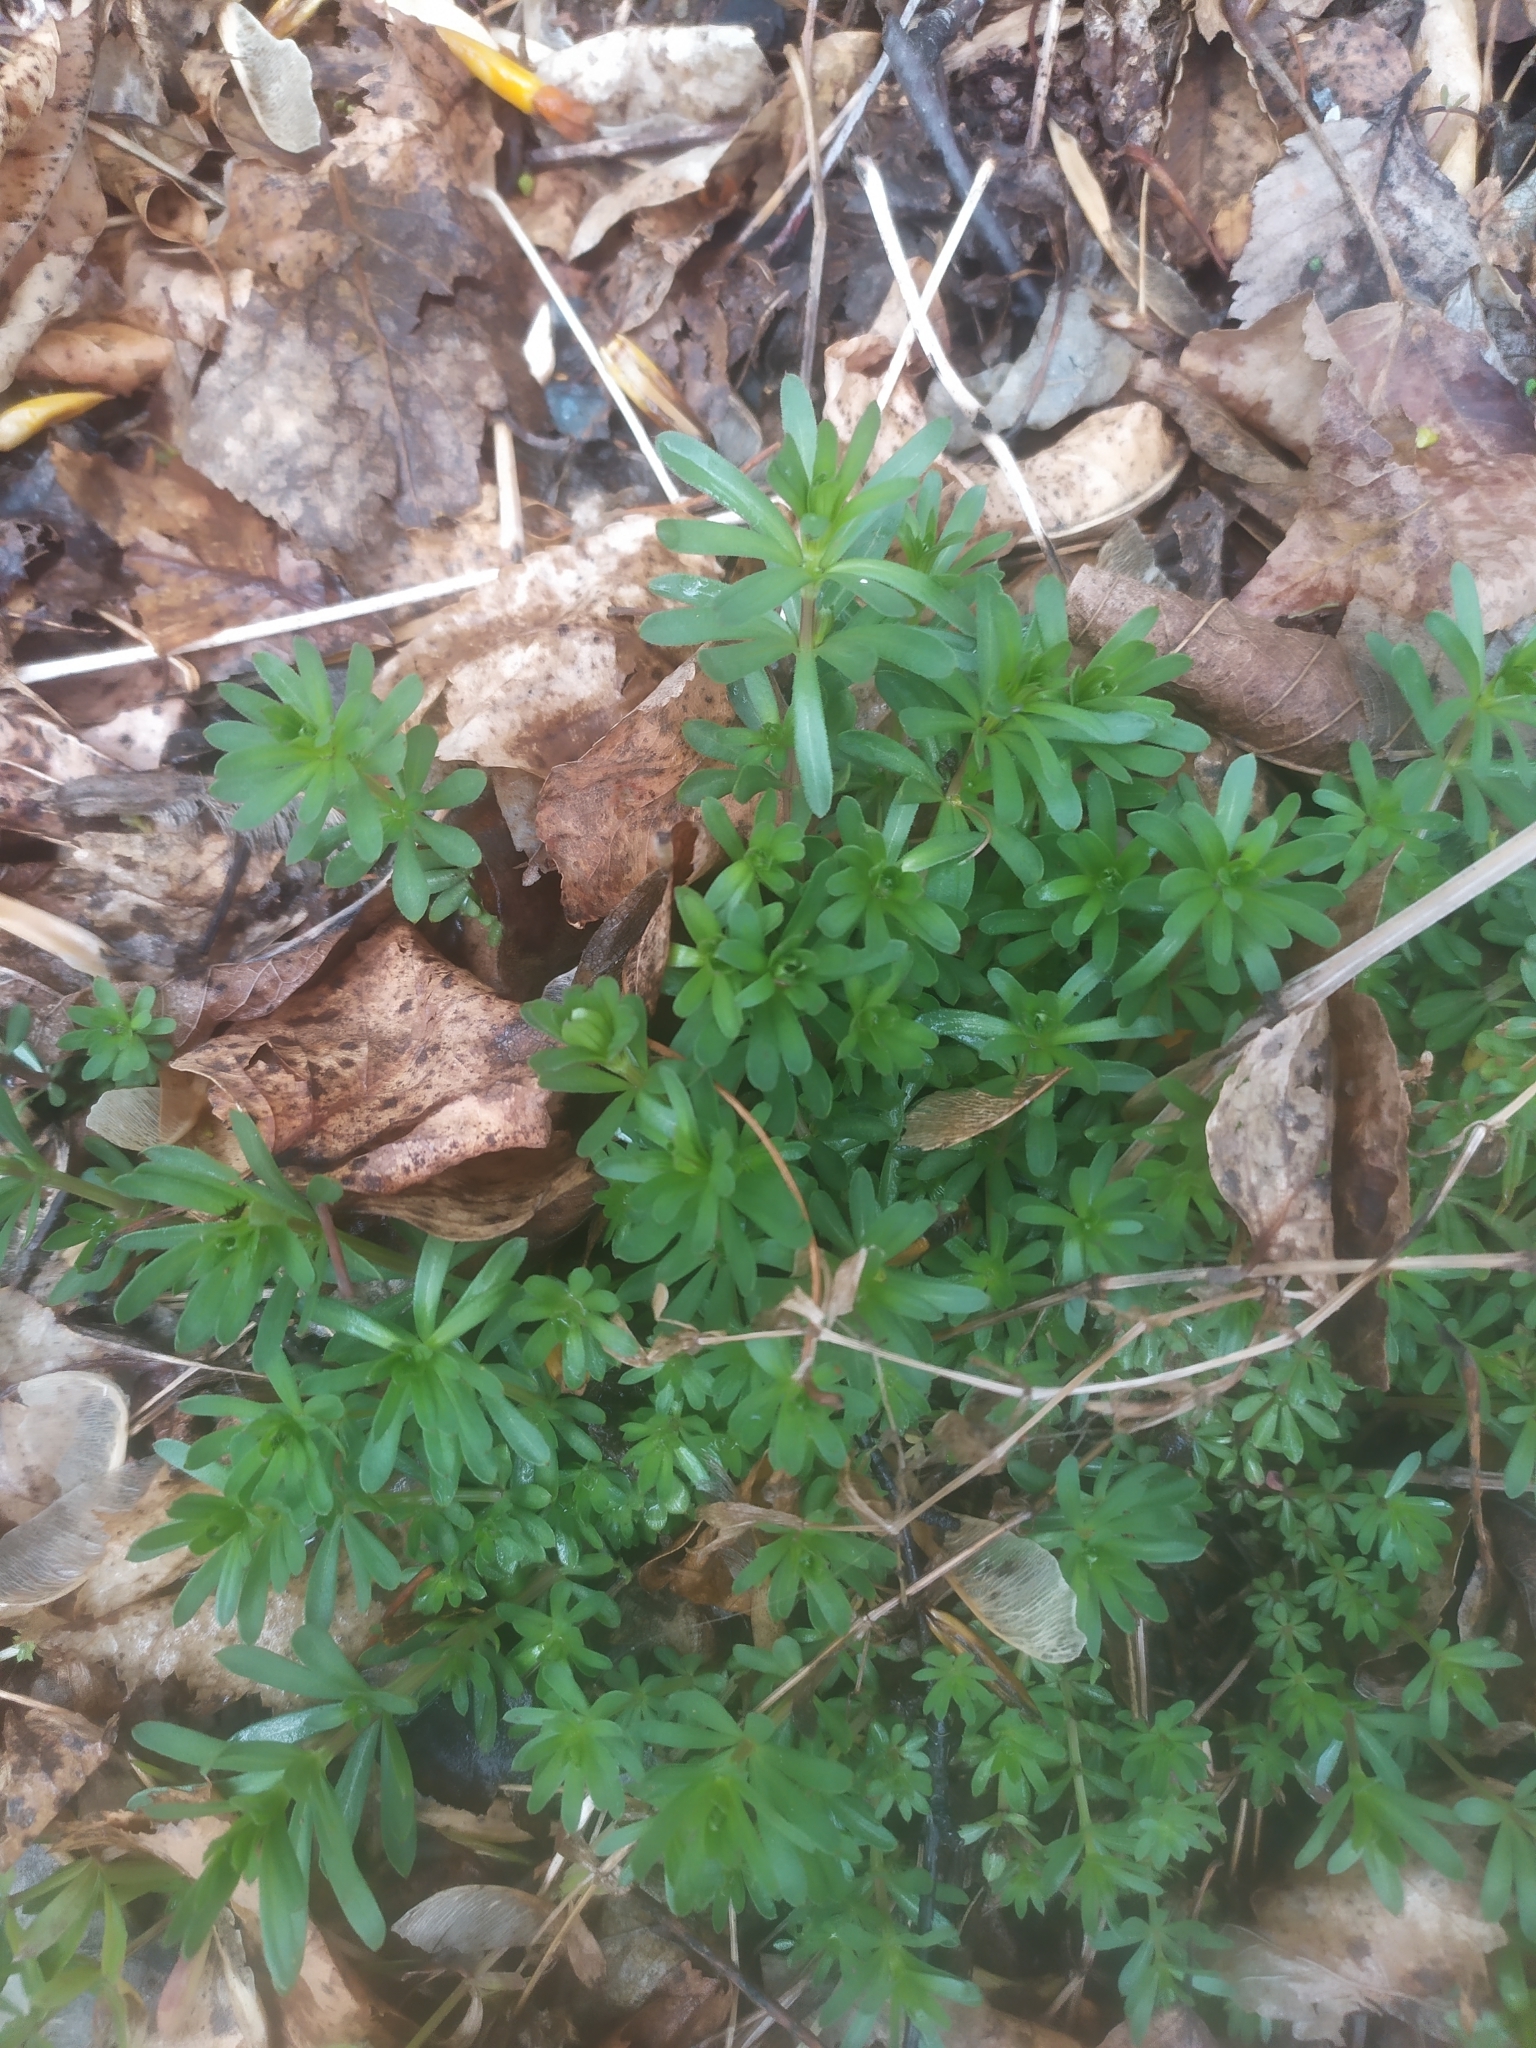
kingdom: Plantae
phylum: Tracheophyta
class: Magnoliopsida
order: Gentianales
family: Rubiaceae
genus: Galium
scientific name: Galium mollugo
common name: Hedge bedstraw
